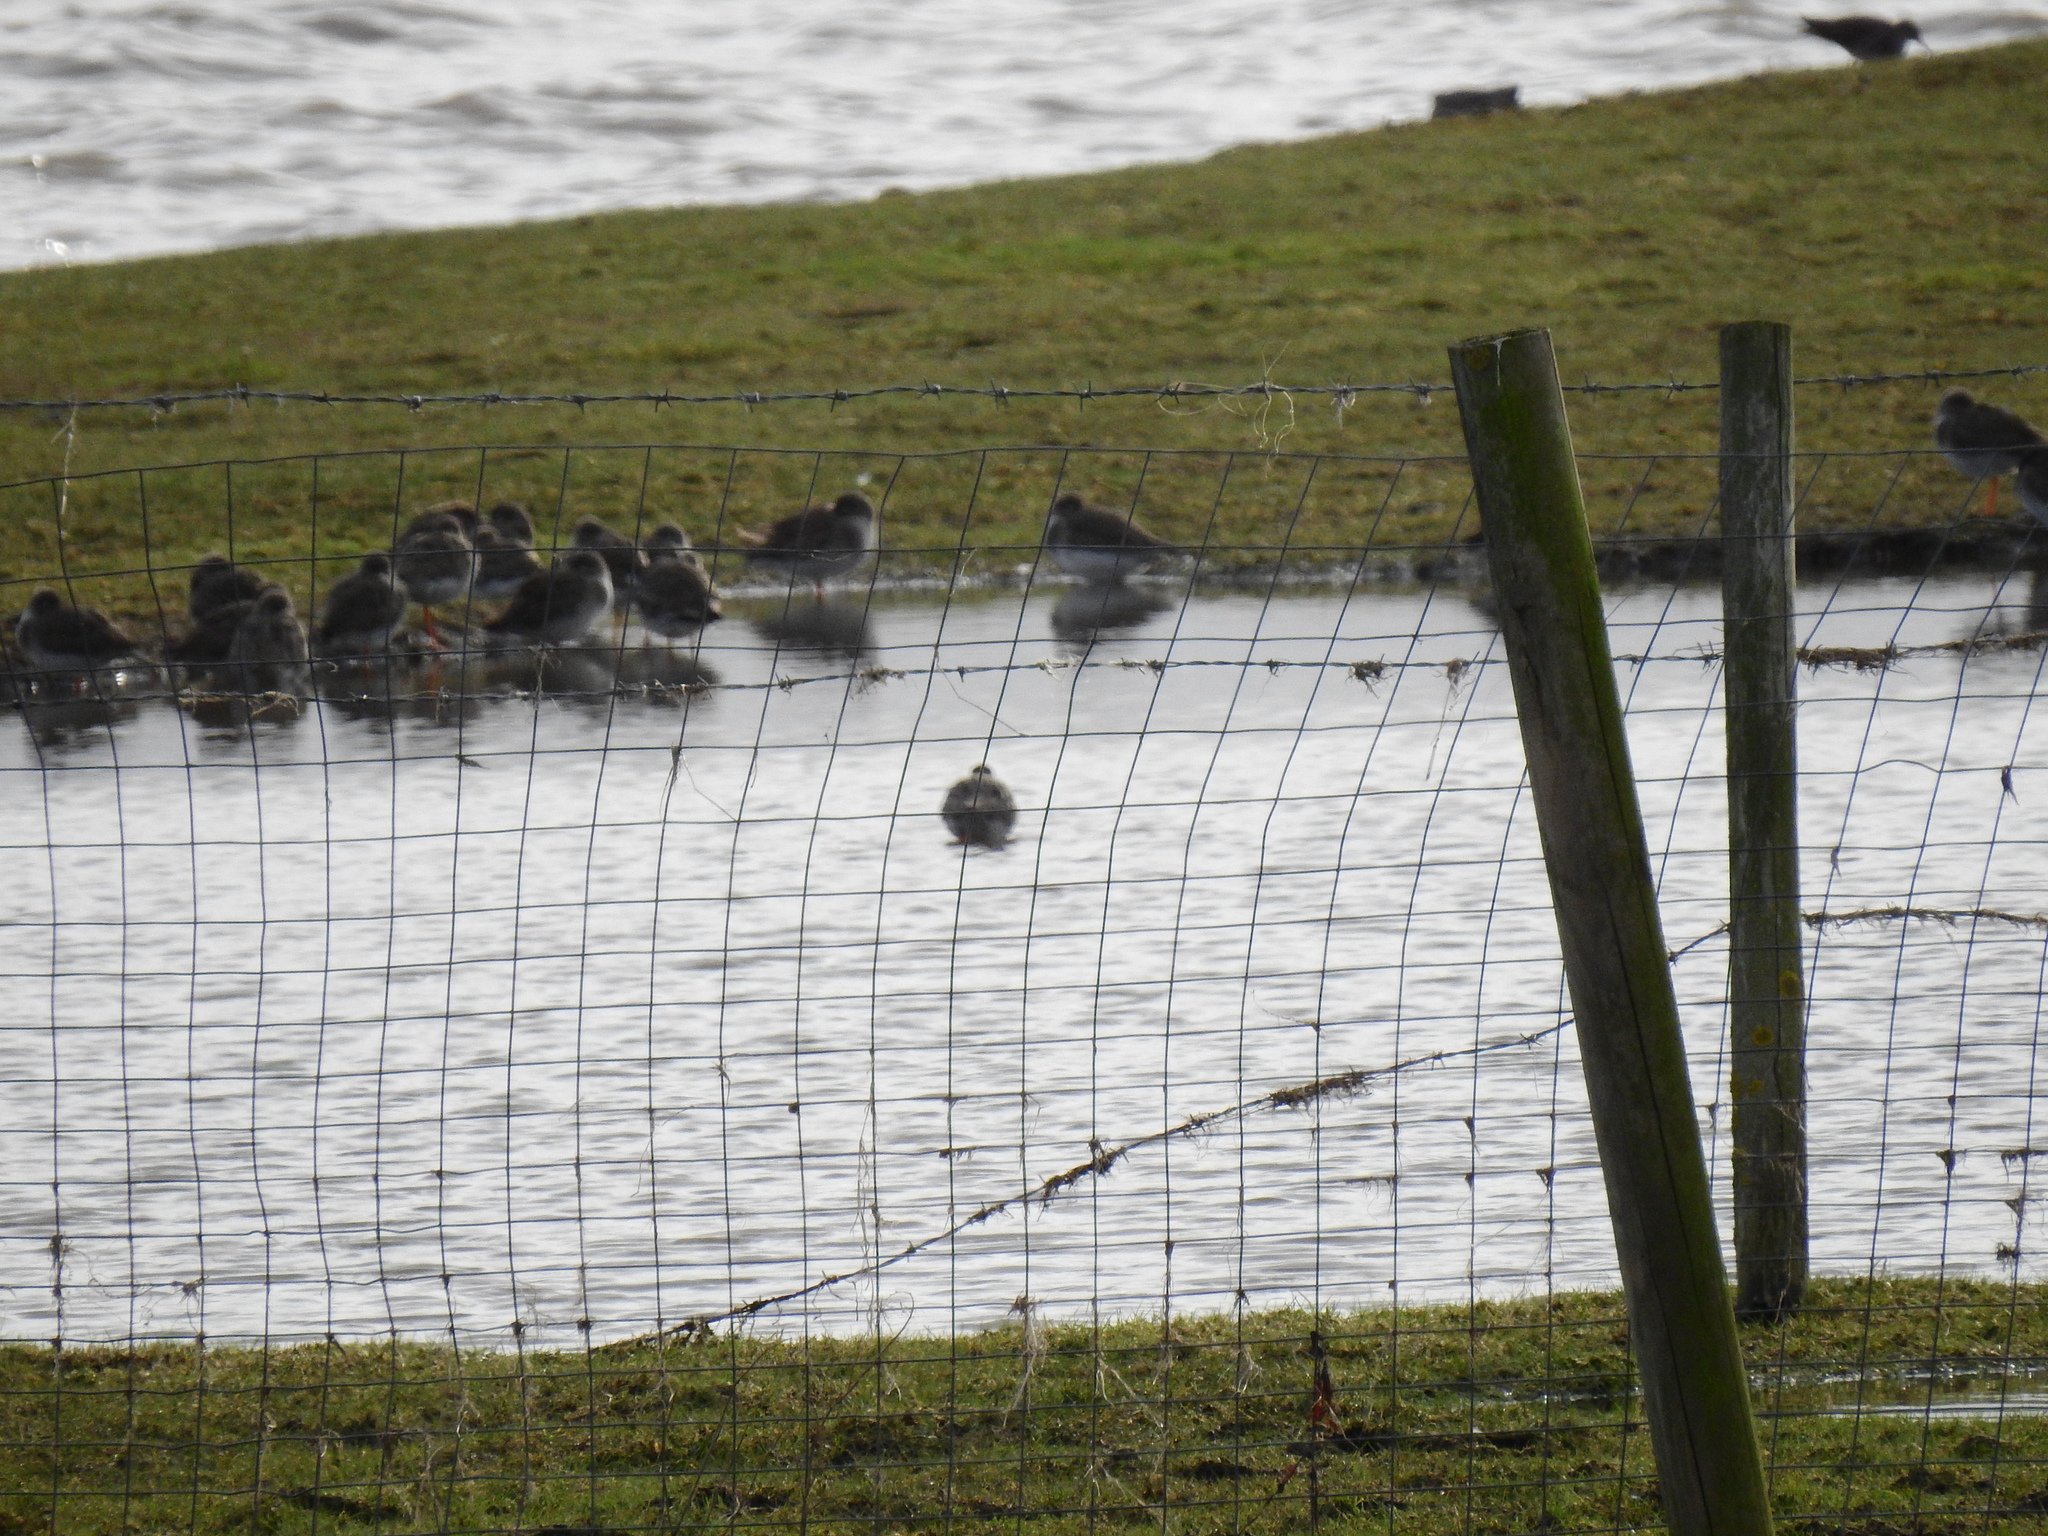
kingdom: Animalia
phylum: Chordata
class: Aves
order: Charadriiformes
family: Scolopacidae
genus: Tringa
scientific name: Tringa totanus
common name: Common redshank
